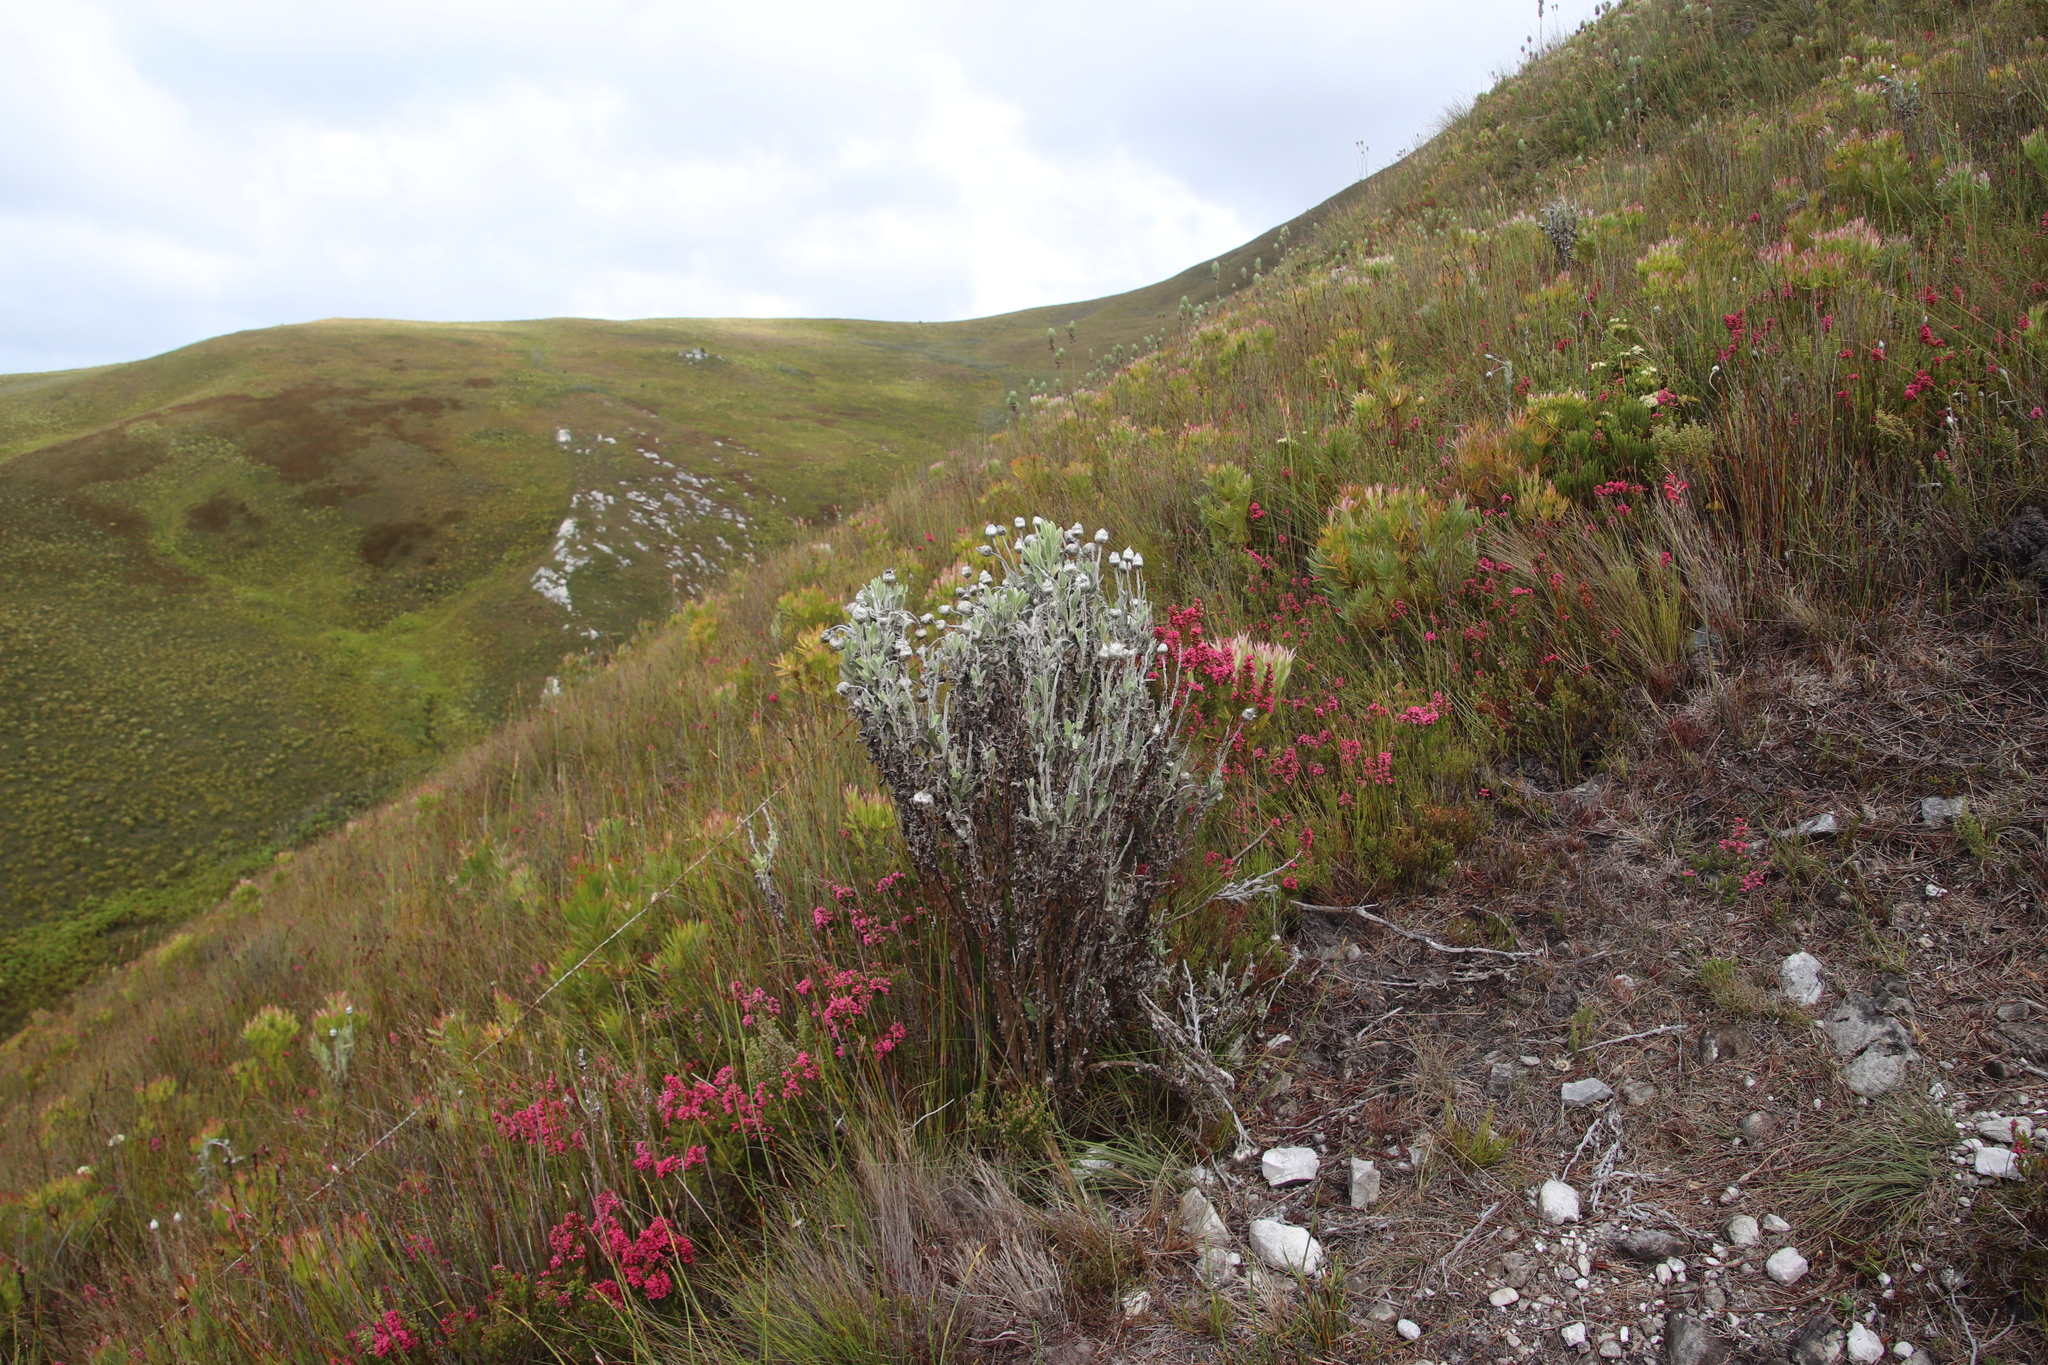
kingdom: Plantae
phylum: Tracheophyta
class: Magnoliopsida
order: Asterales
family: Asteraceae
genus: Syncarpha
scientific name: Syncarpha vestita
